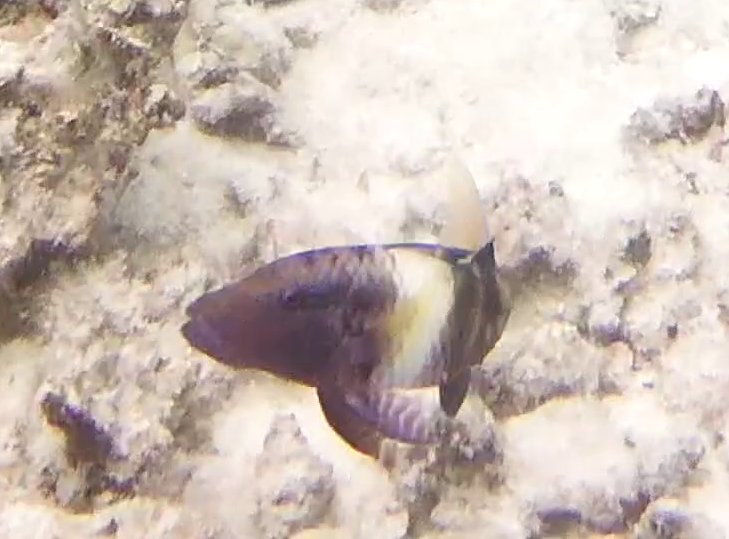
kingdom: Animalia
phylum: Chordata
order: Perciformes
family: Mullidae
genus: Parupeneus
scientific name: Parupeneus multifasciatus
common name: Manybar goatfish
